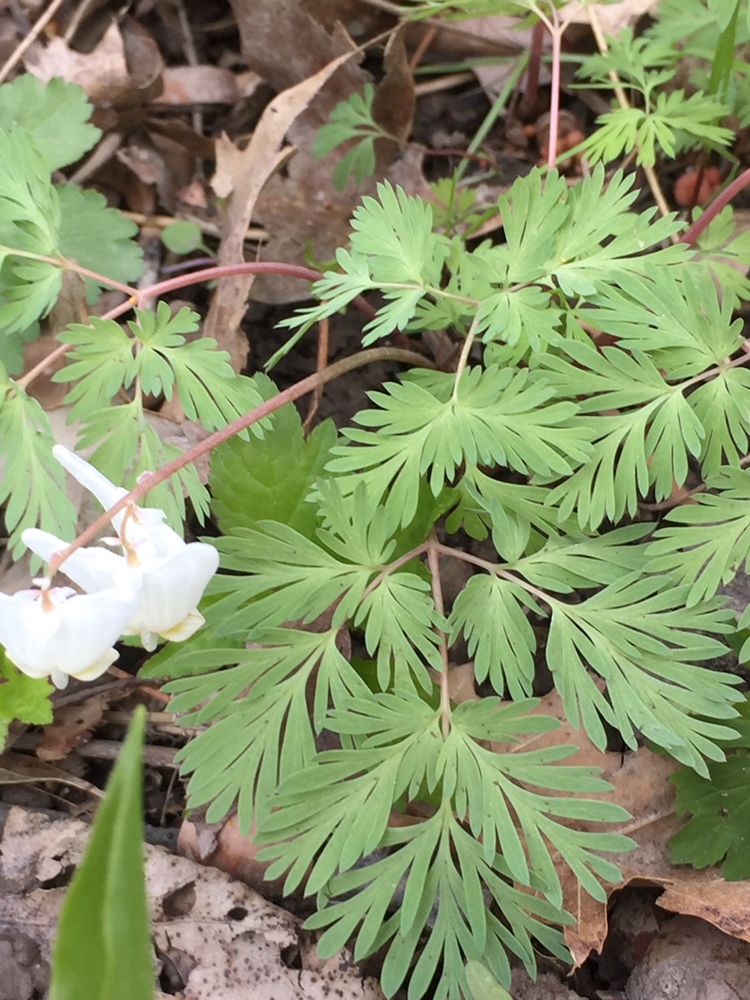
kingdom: Plantae
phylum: Tracheophyta
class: Magnoliopsida
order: Ranunculales
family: Papaveraceae
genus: Dicentra
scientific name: Dicentra cucullaria
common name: Dutchman's breeches
